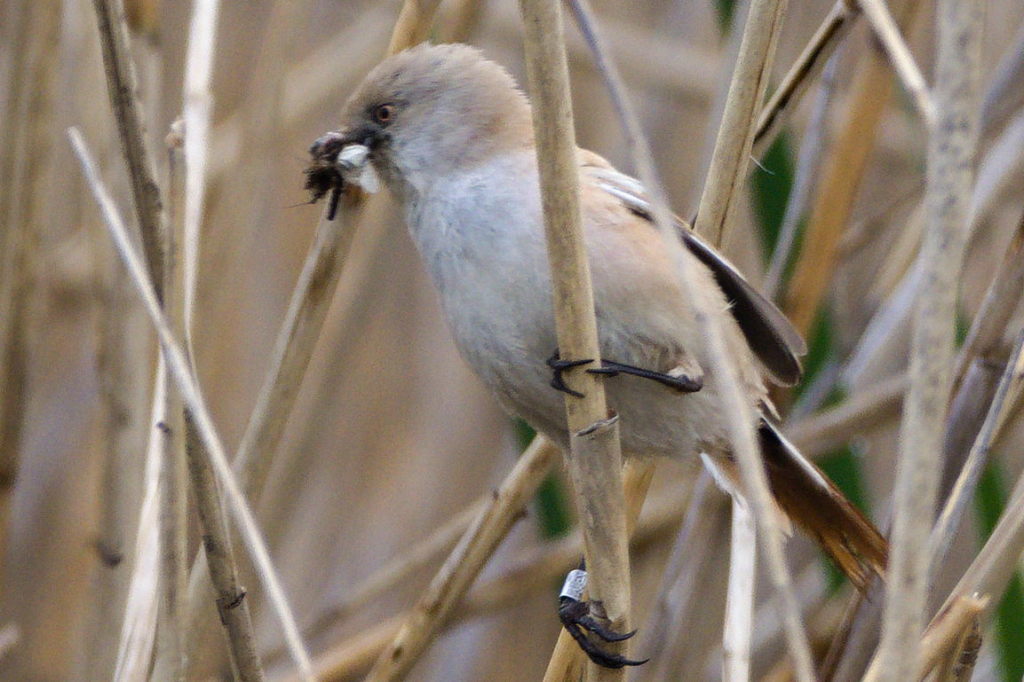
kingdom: Animalia
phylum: Chordata
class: Aves
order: Passeriformes
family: Panuridae
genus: Panurus
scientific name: Panurus biarmicus
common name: Bearded reedling
